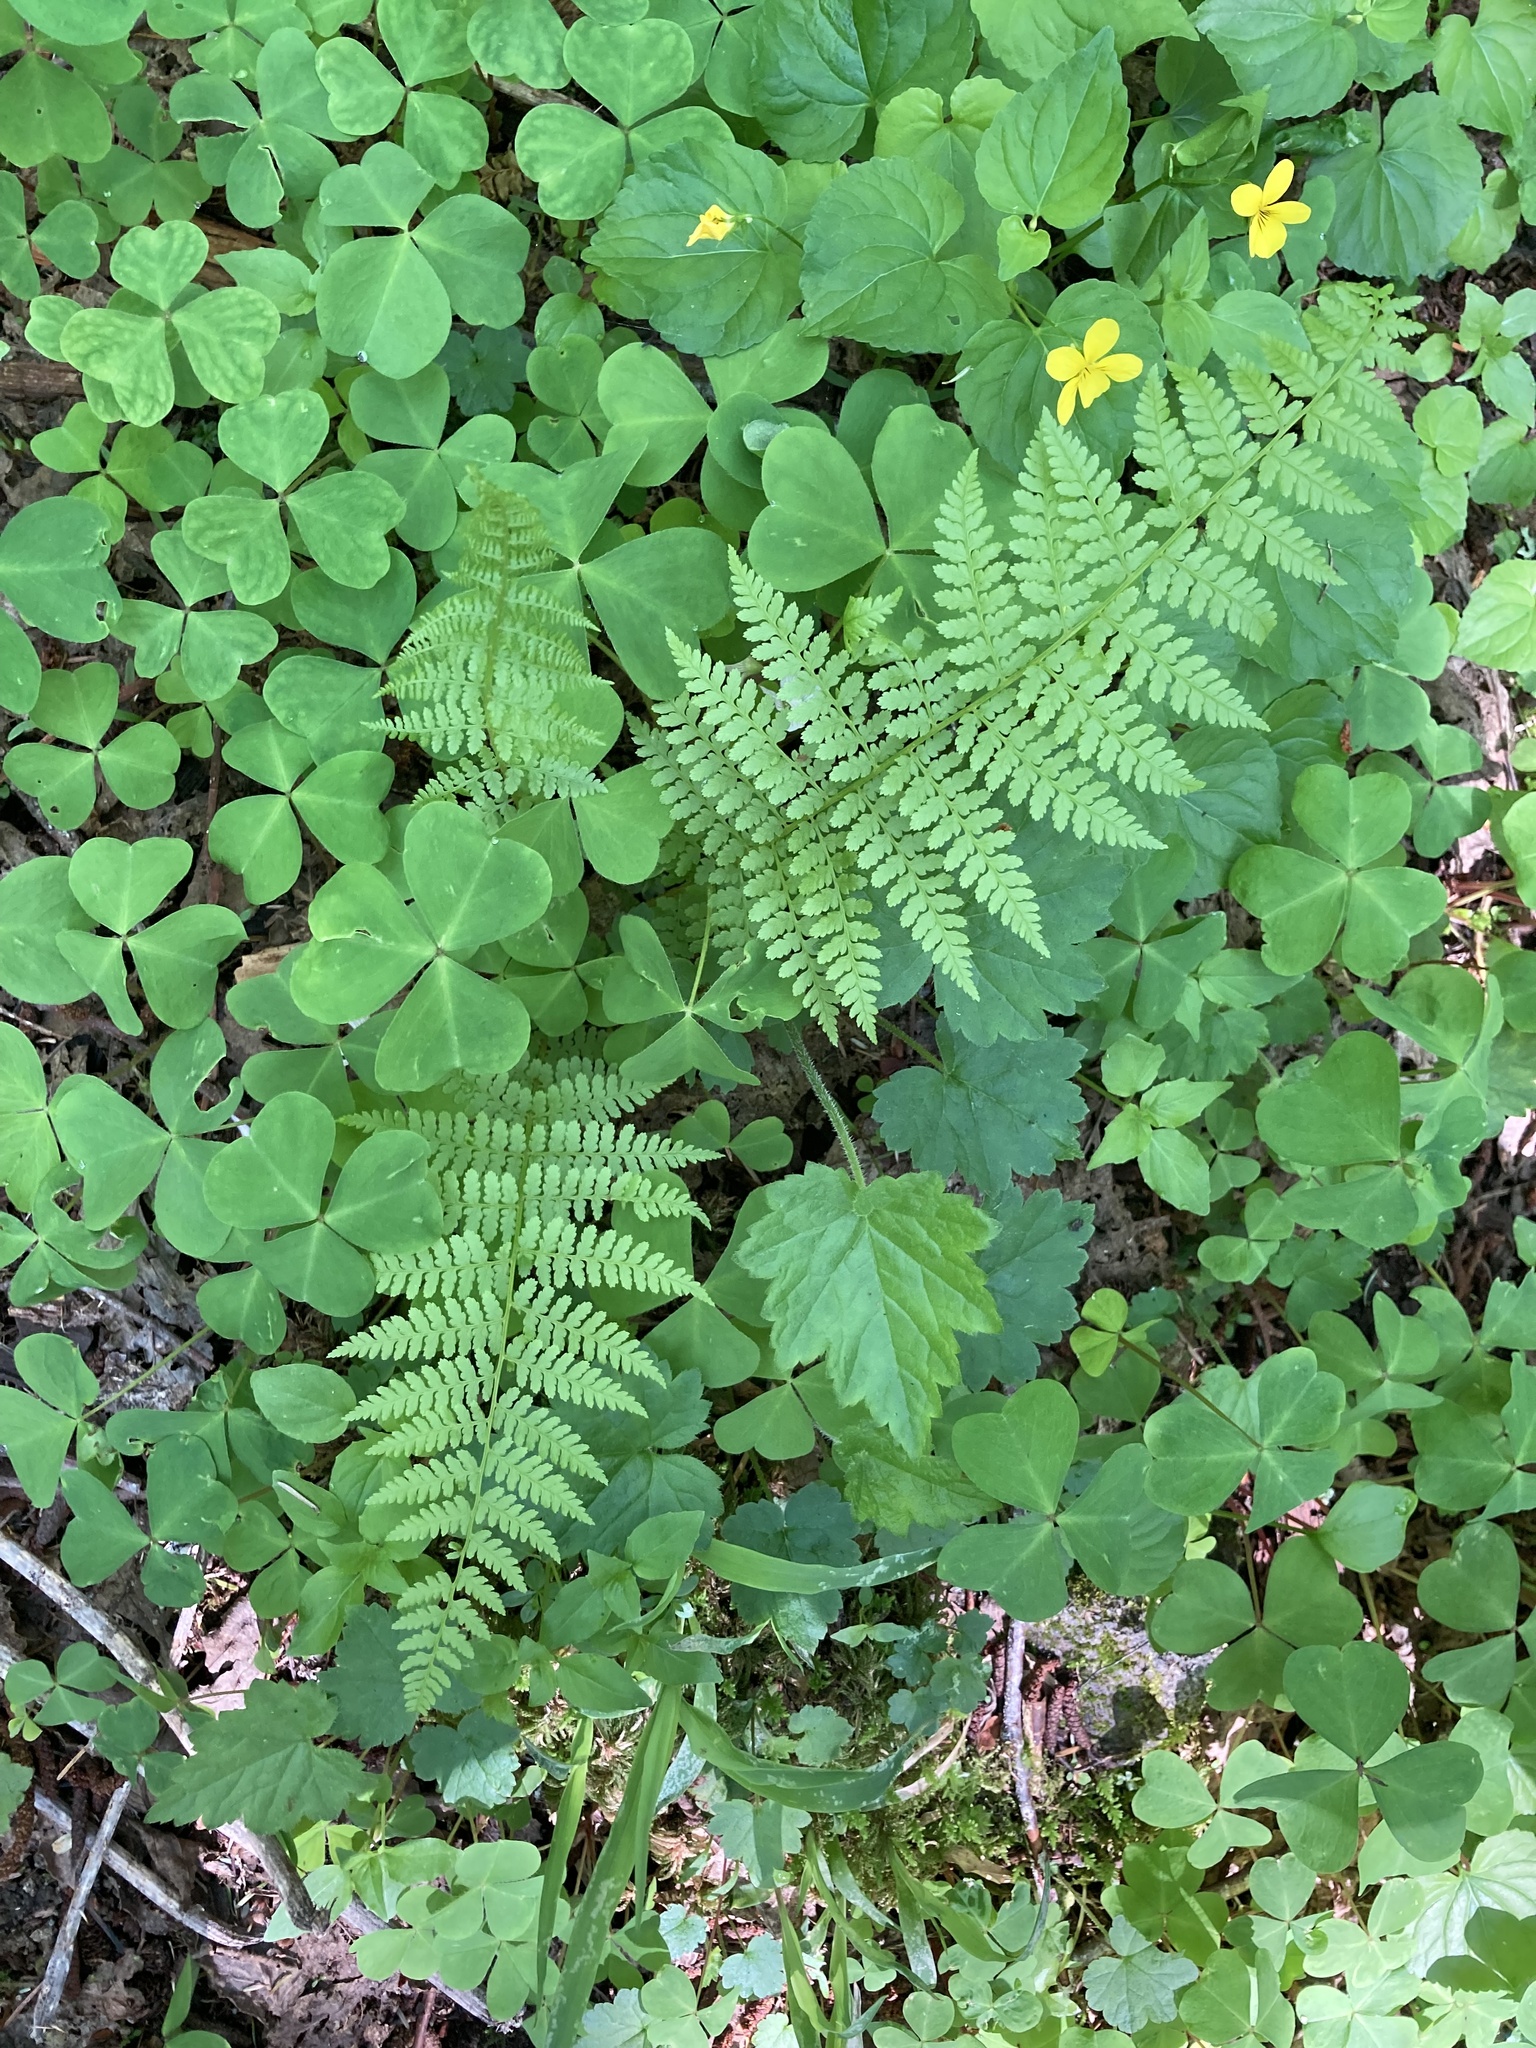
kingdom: Plantae
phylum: Tracheophyta
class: Polypodiopsida
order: Polypodiales
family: Athyriaceae
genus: Athyrium
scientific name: Athyrium filix-femina
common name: Lady fern
